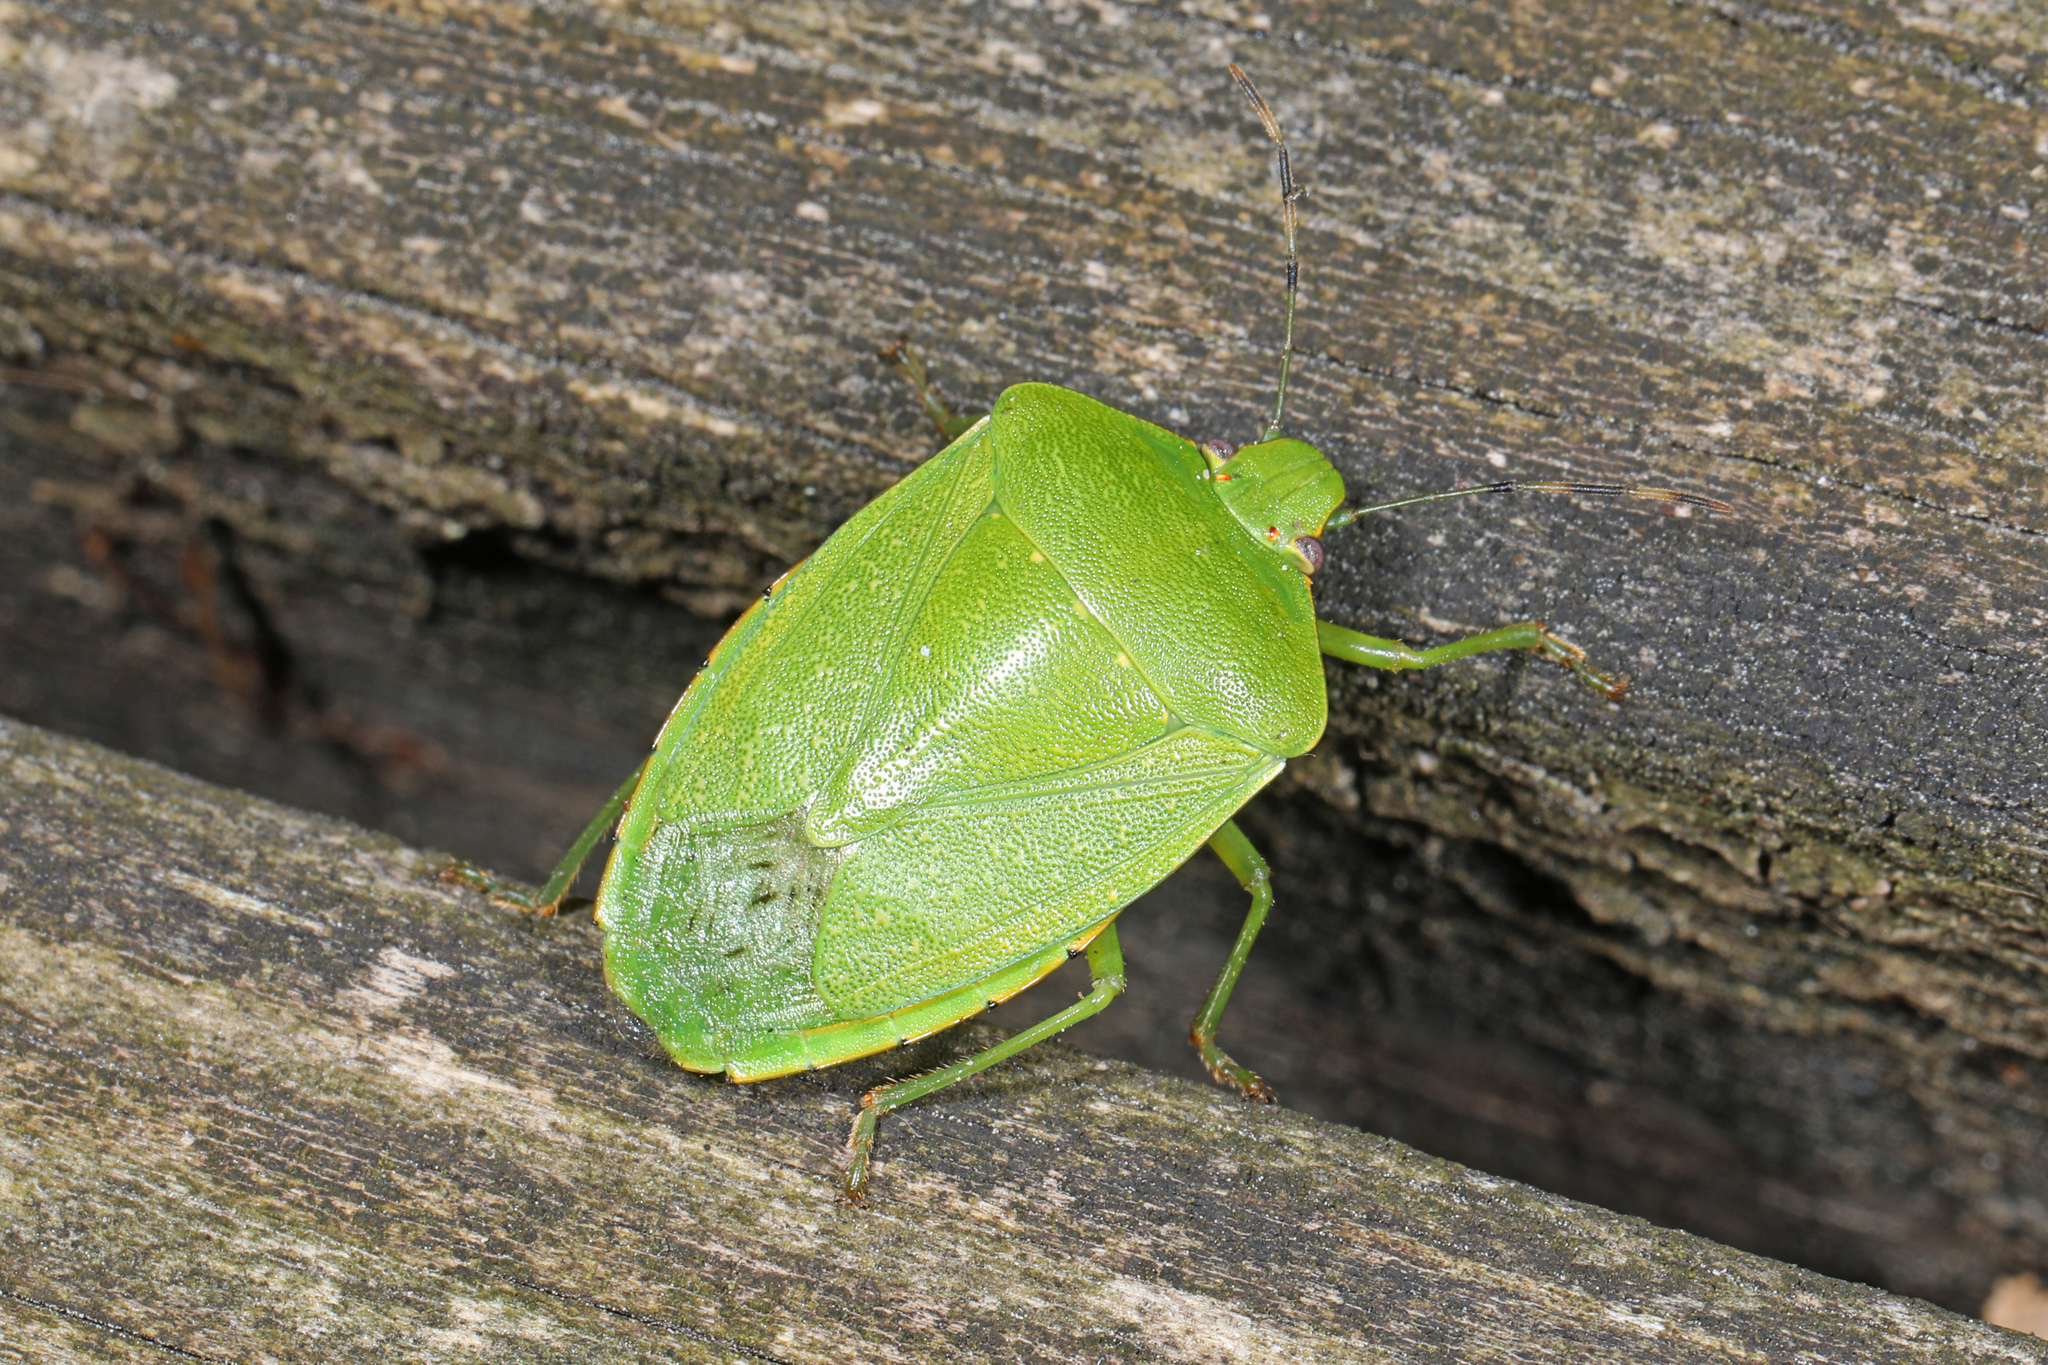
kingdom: Animalia
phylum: Arthropoda
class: Insecta
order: Hemiptera
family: Pentatomidae
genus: Chinavia
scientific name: Chinavia hilaris
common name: Green stink bug
